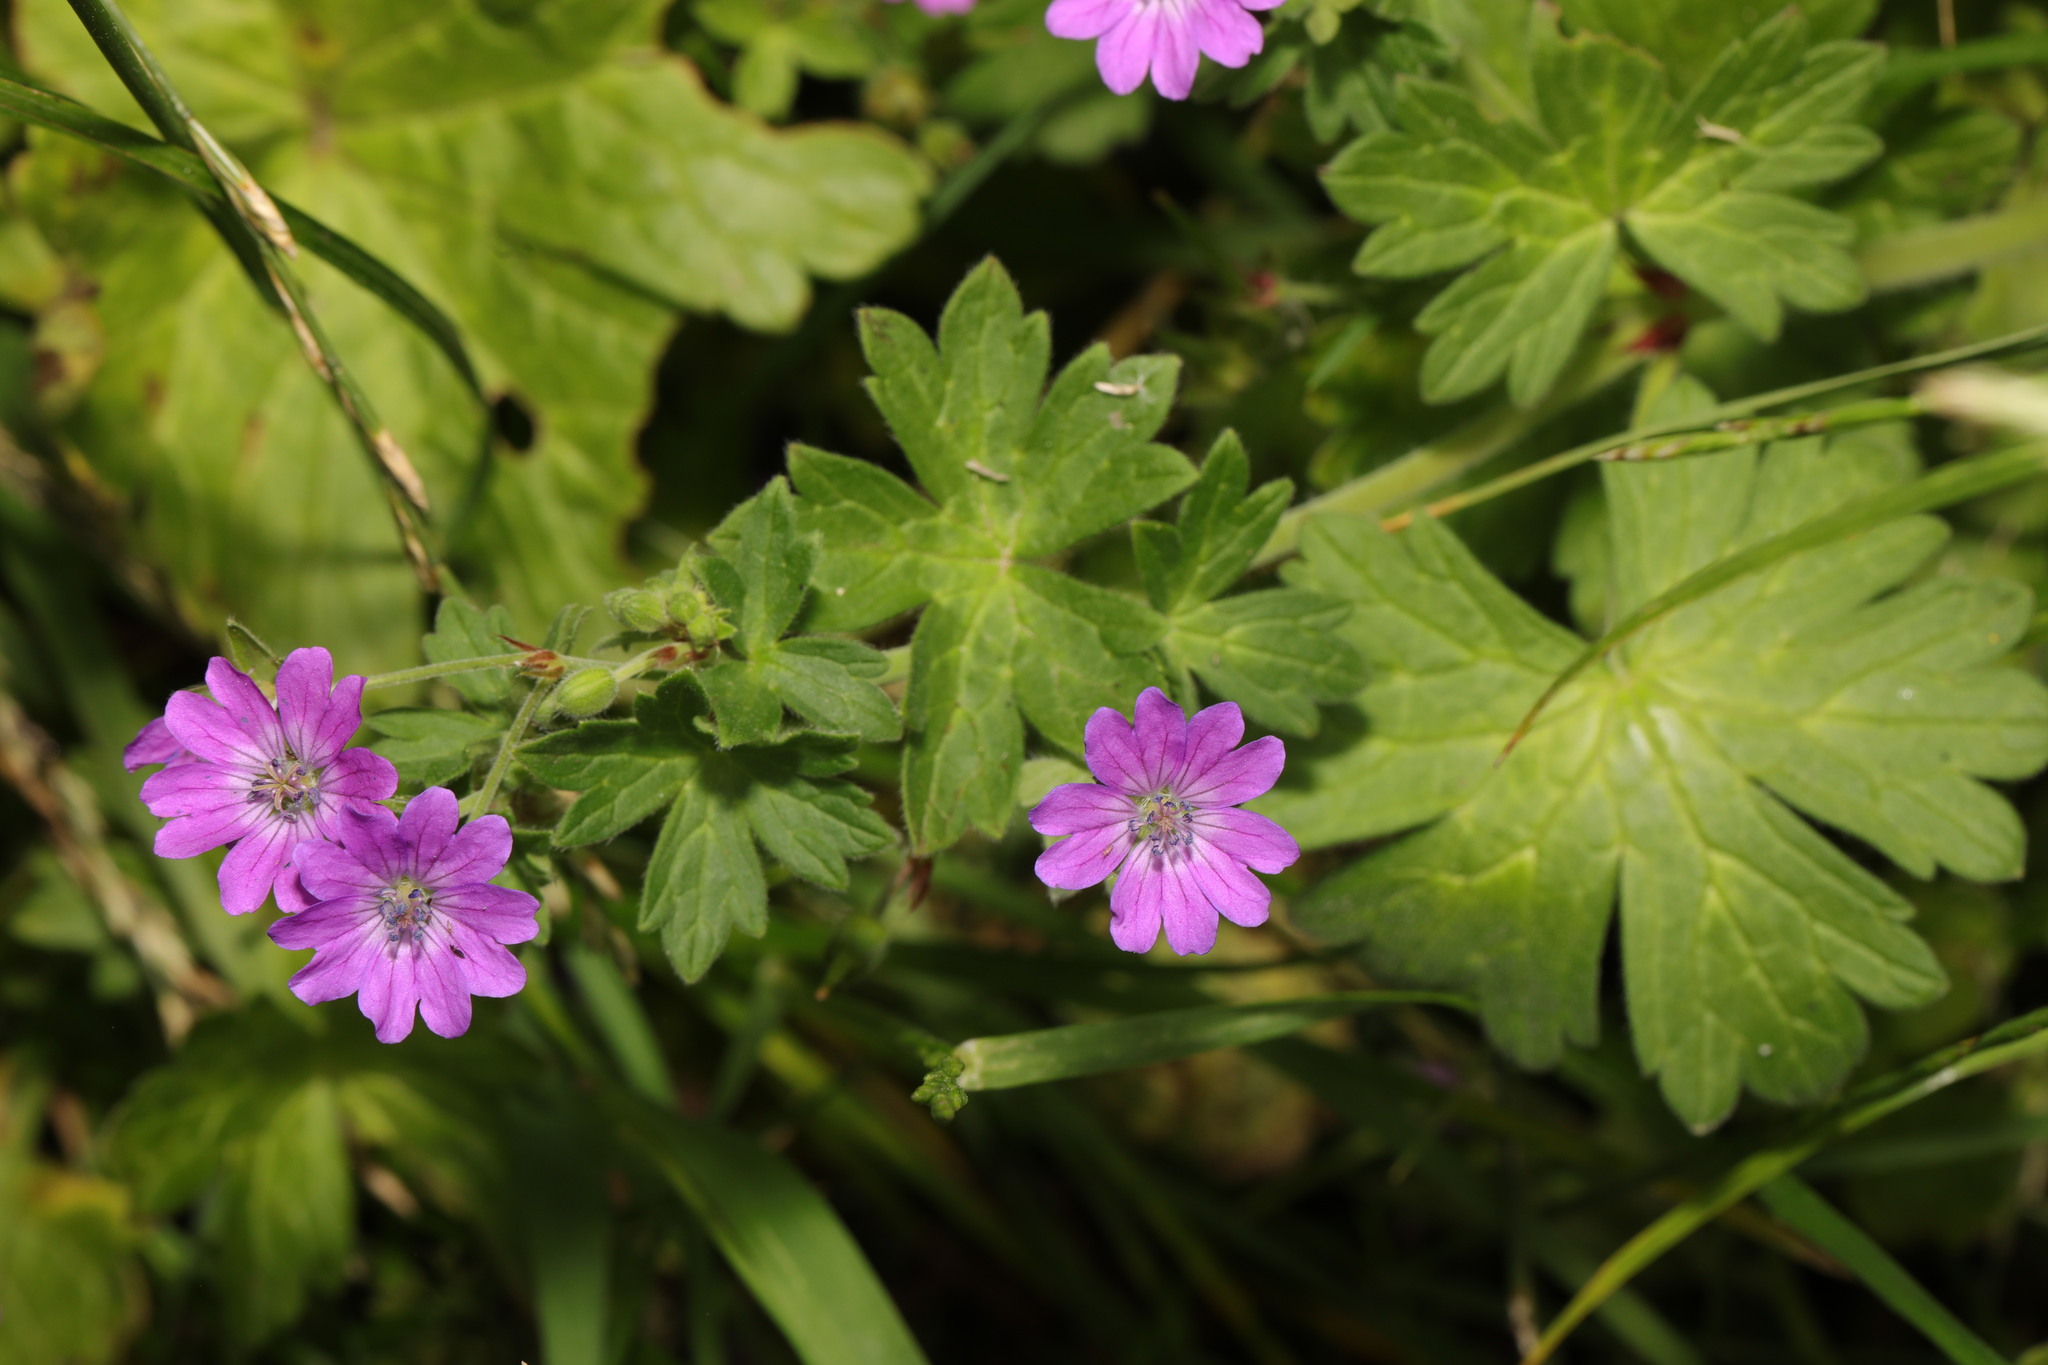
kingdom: Plantae
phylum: Tracheophyta
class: Magnoliopsida
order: Geraniales
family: Geraniaceae
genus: Geranium
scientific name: Geranium pyrenaicum
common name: Hedgerow crane's-bill
